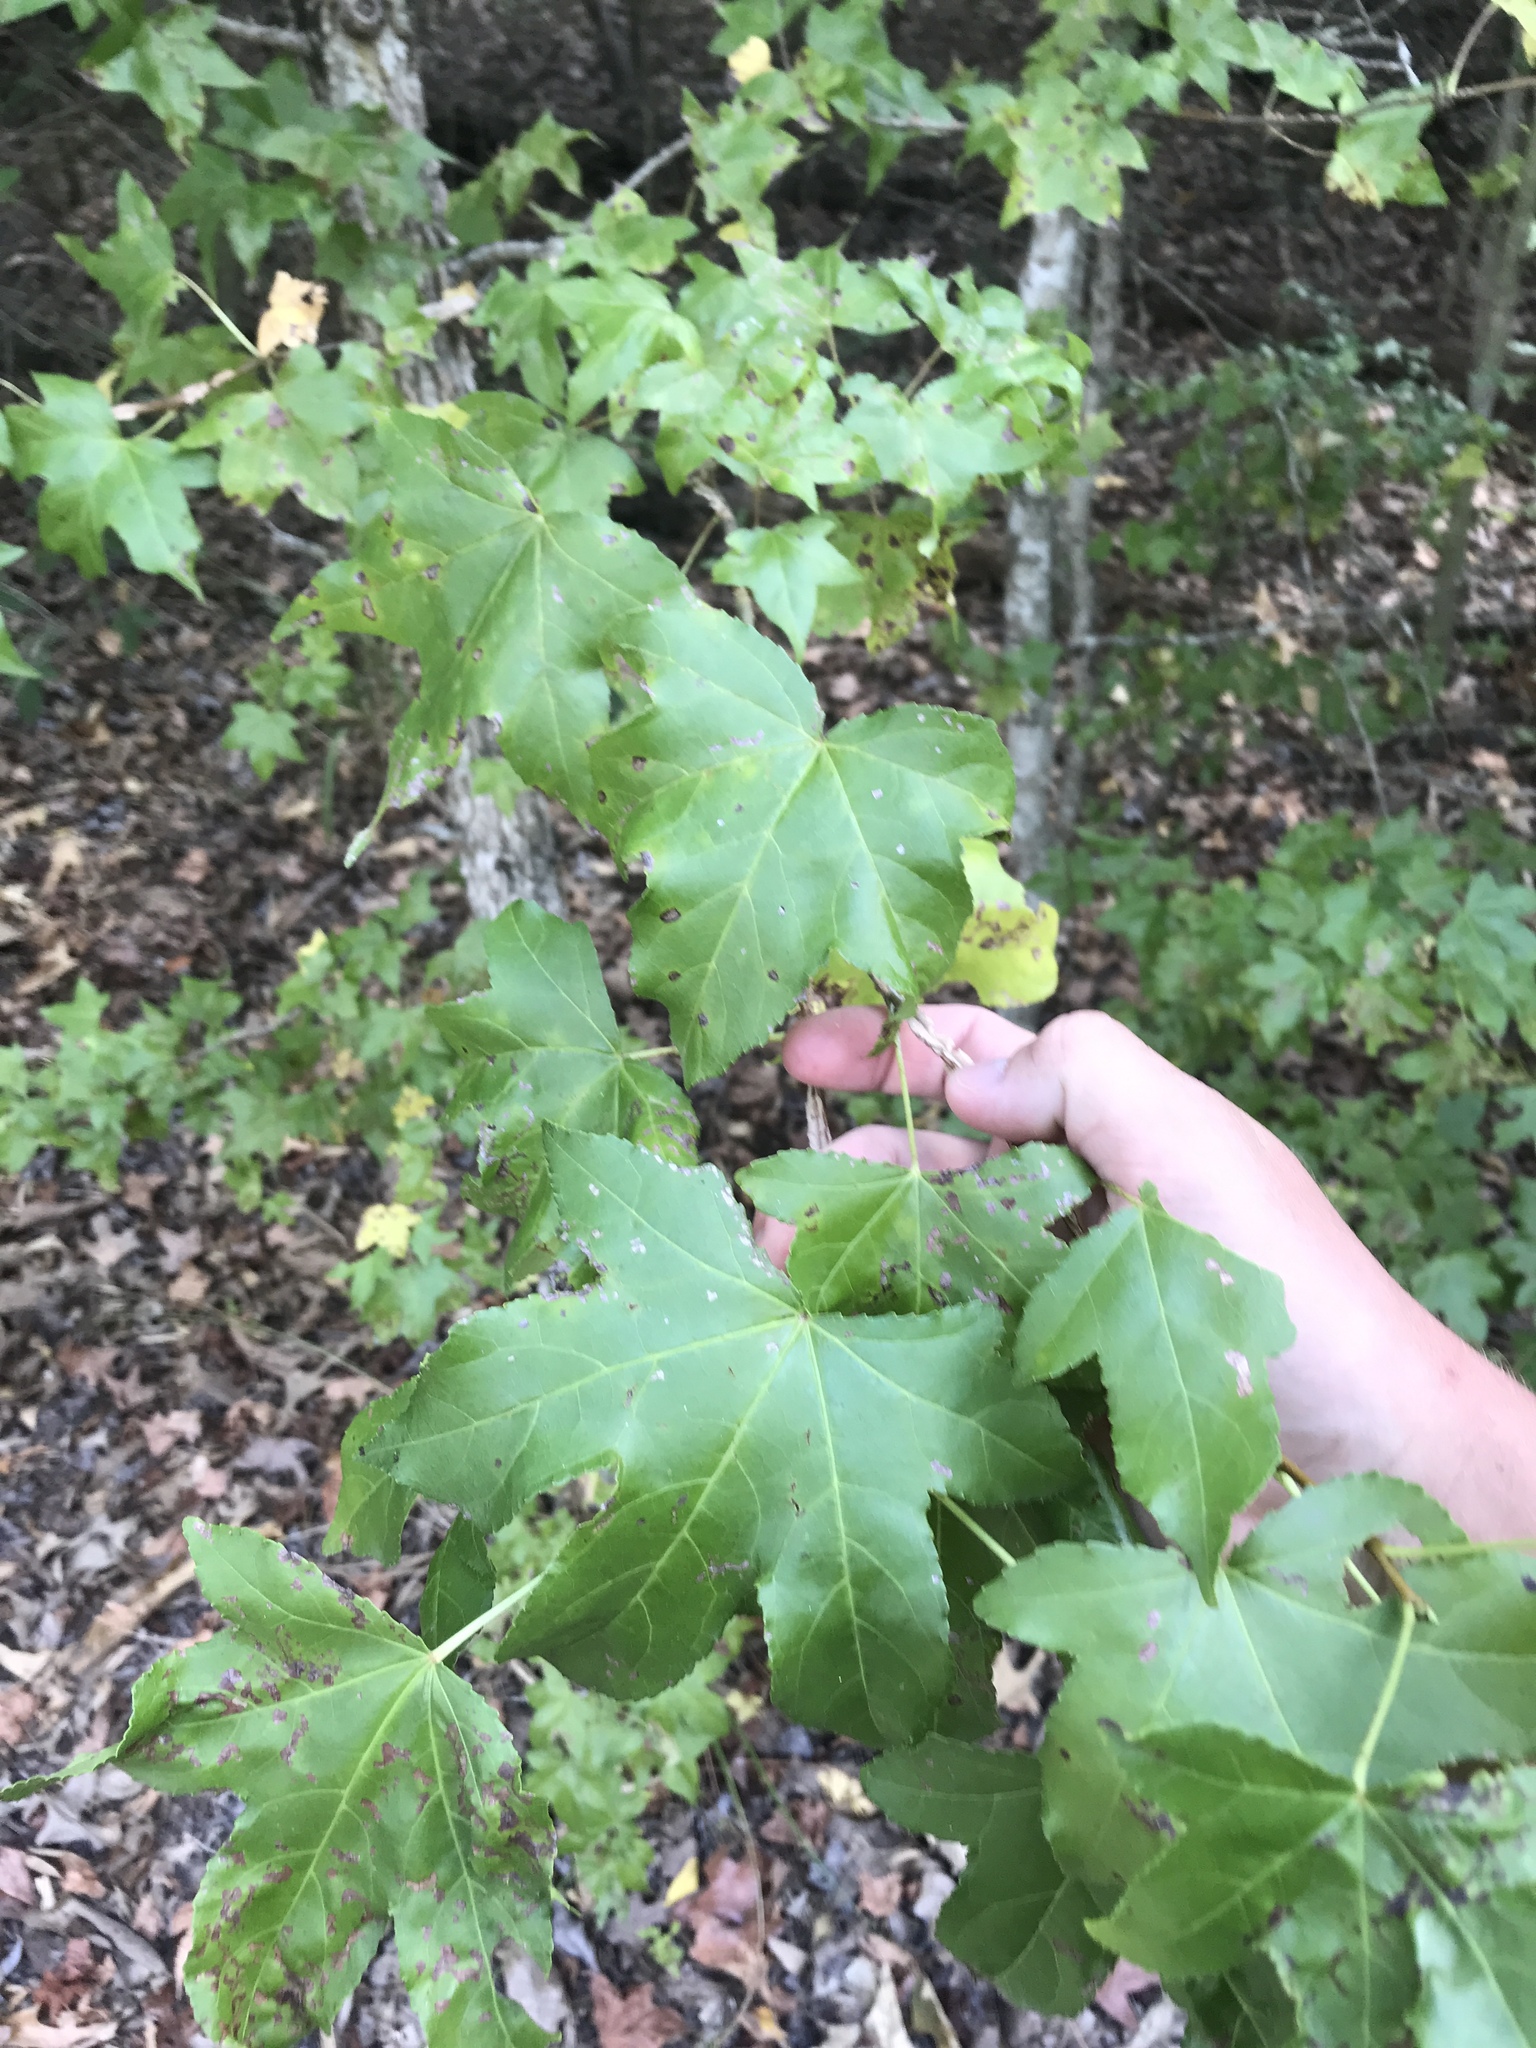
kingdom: Plantae
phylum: Tracheophyta
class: Magnoliopsida
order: Saxifragales
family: Altingiaceae
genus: Liquidambar
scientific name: Liquidambar styraciflua
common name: Sweet gum
